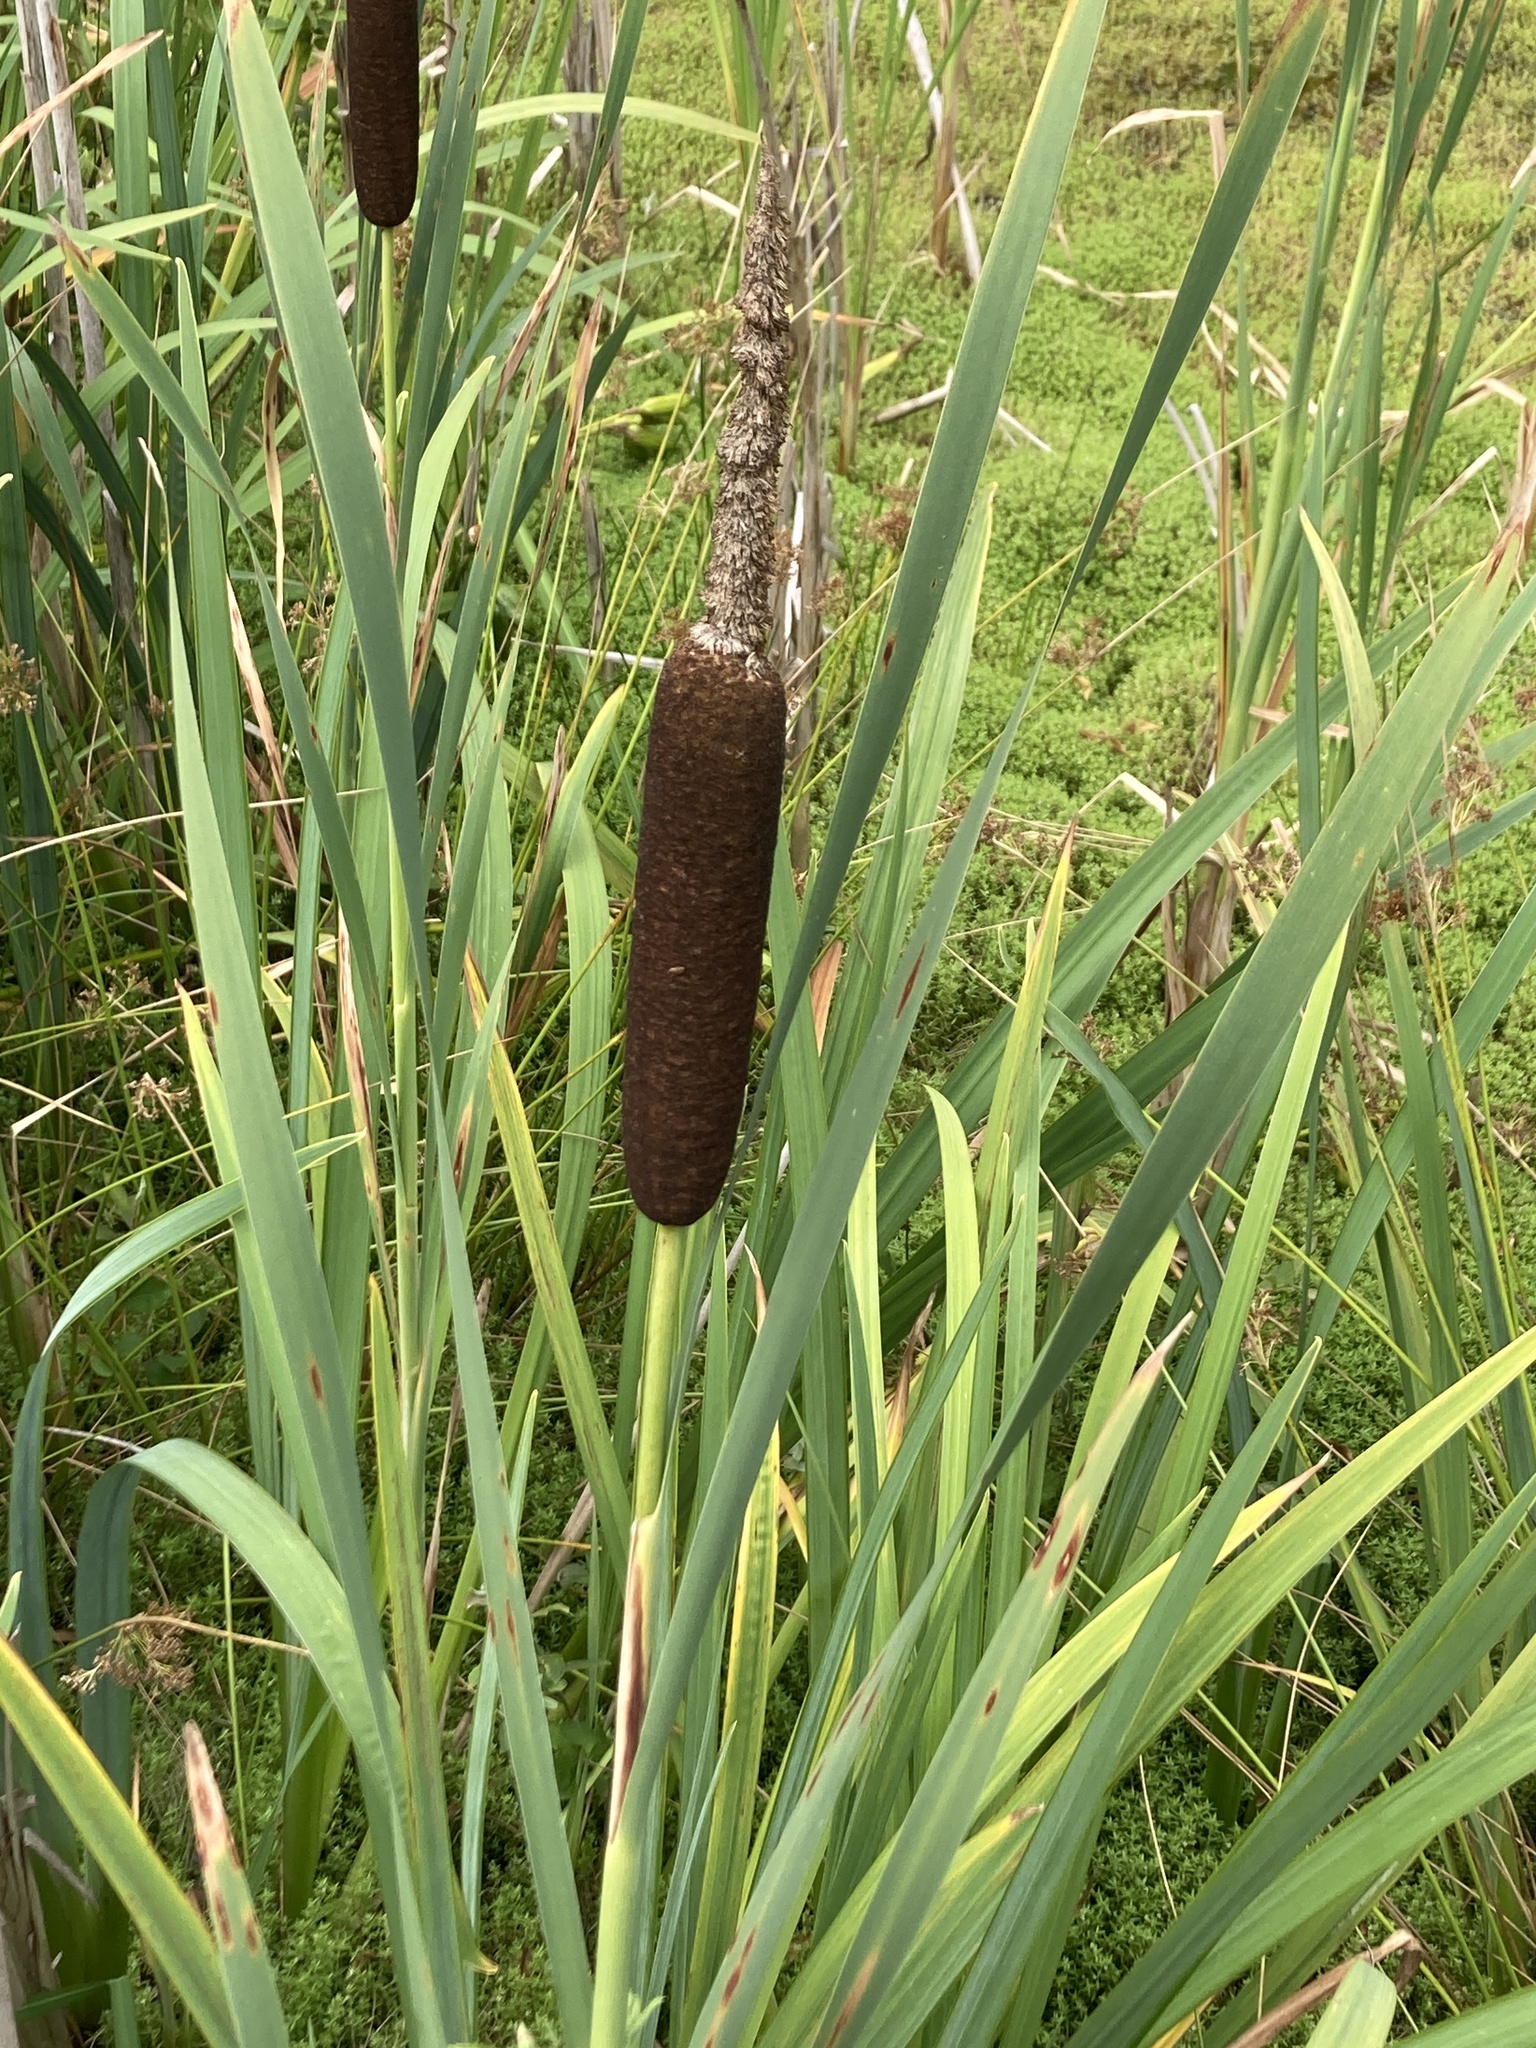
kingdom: Plantae
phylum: Tracheophyta
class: Liliopsida
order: Poales
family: Typhaceae
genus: Typha
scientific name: Typha latifolia
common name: Broadleaf cattail
